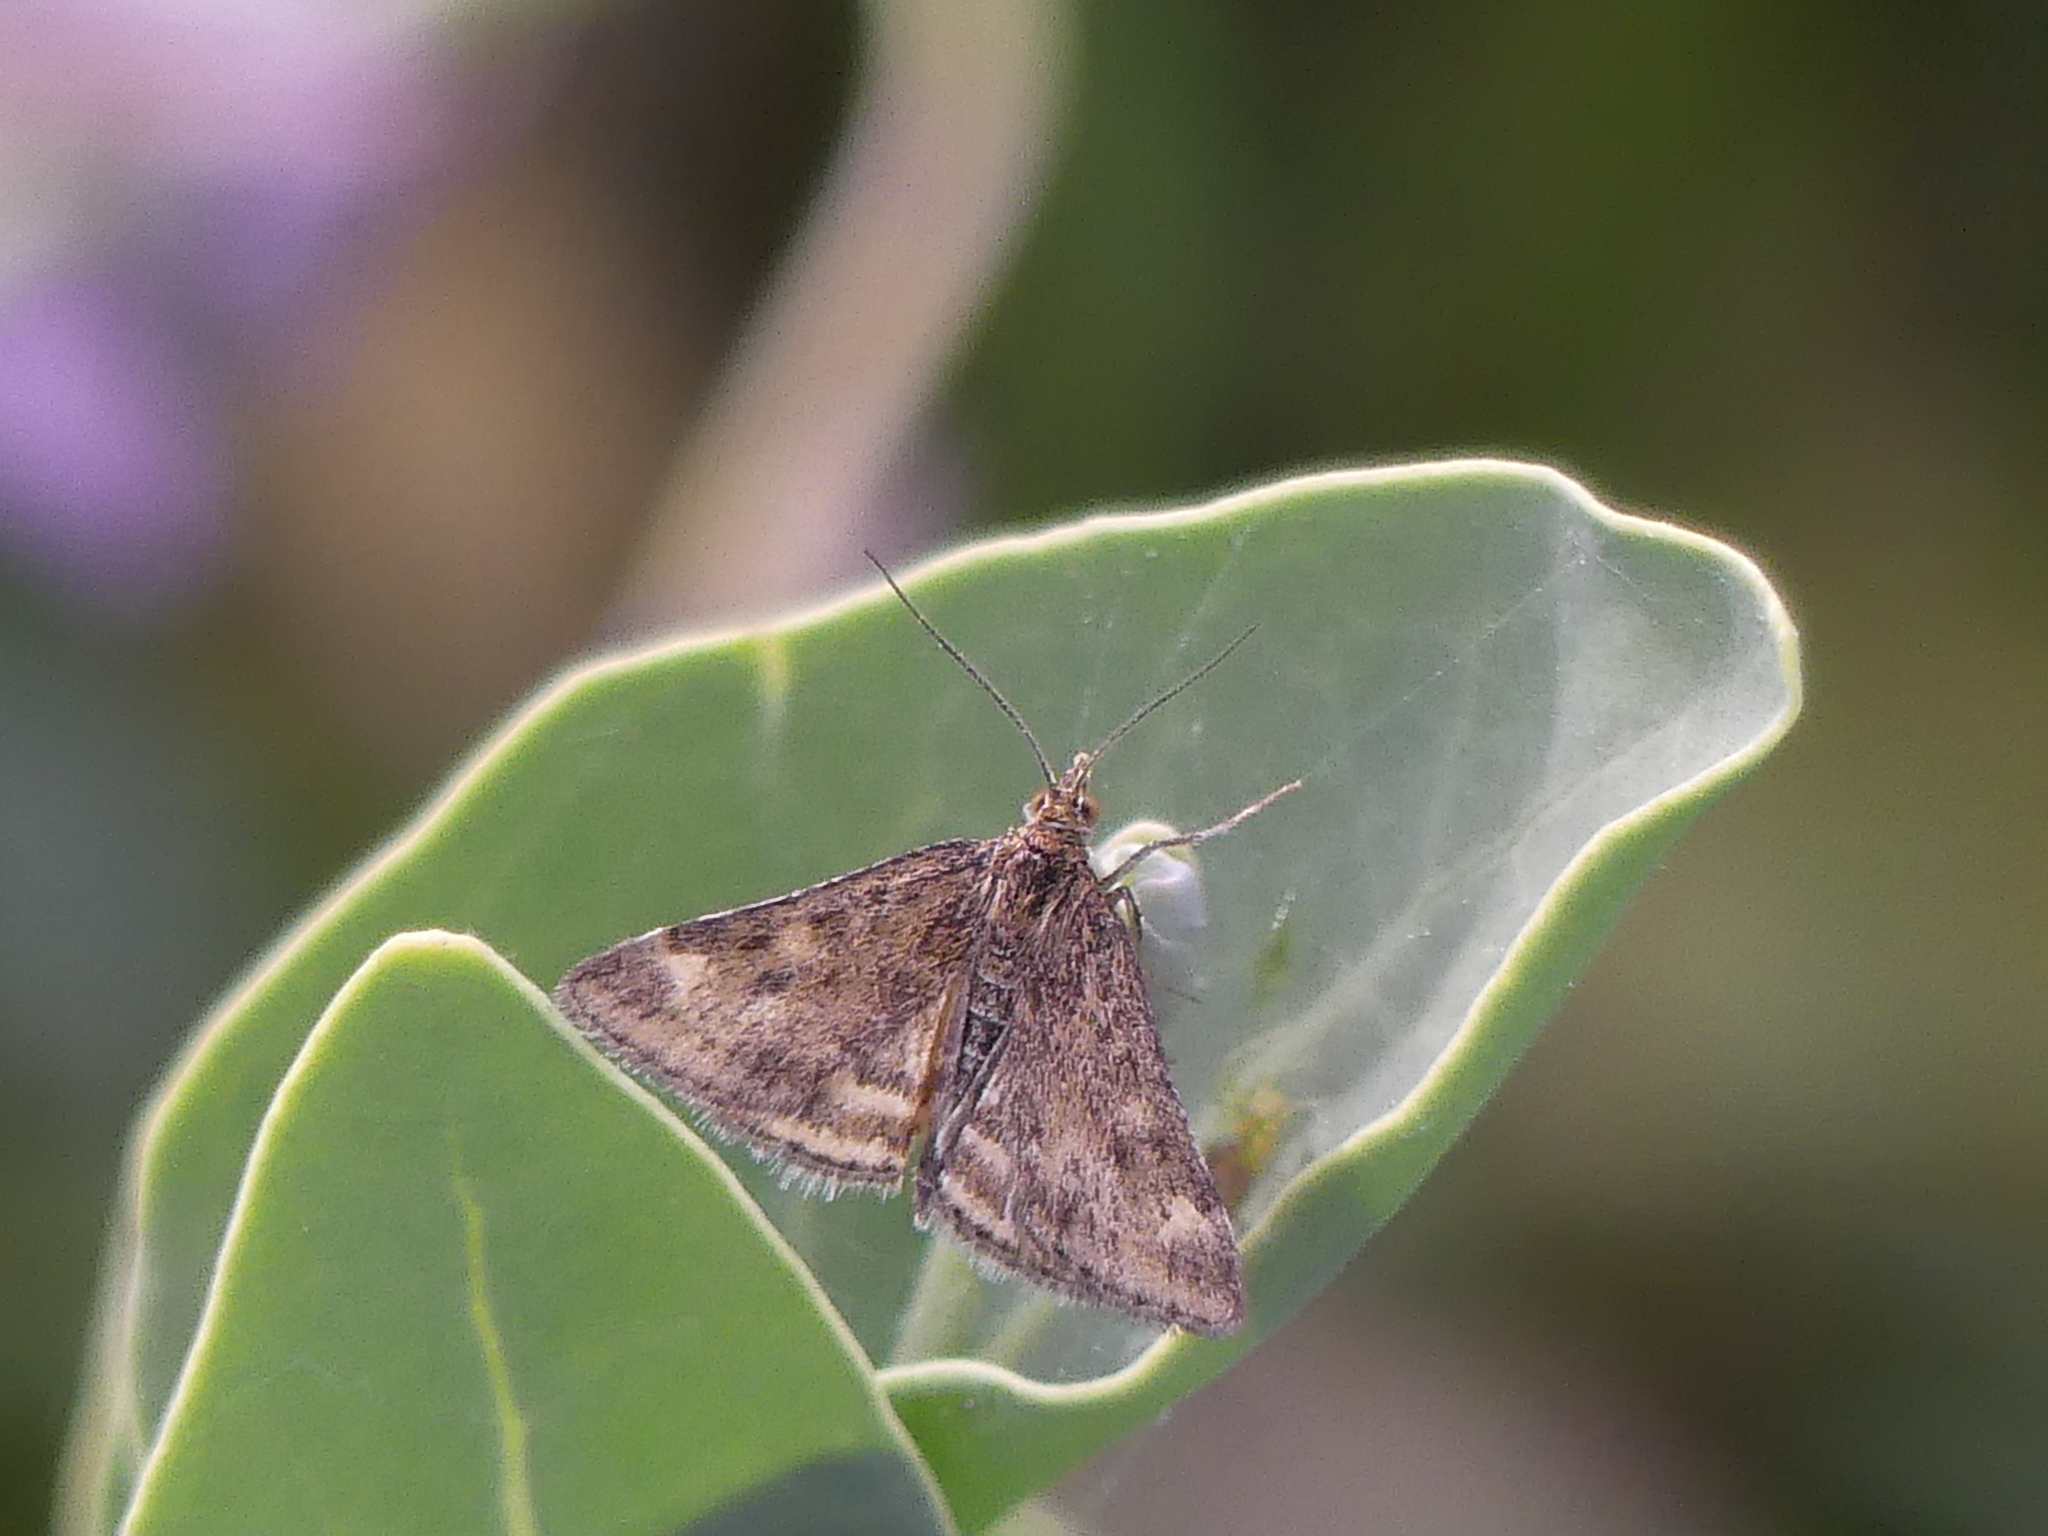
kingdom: Animalia
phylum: Arthropoda
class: Insecta
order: Lepidoptera
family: Crambidae
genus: Pyrausta
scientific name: Pyrausta despicata
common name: Straw-barred pearl
